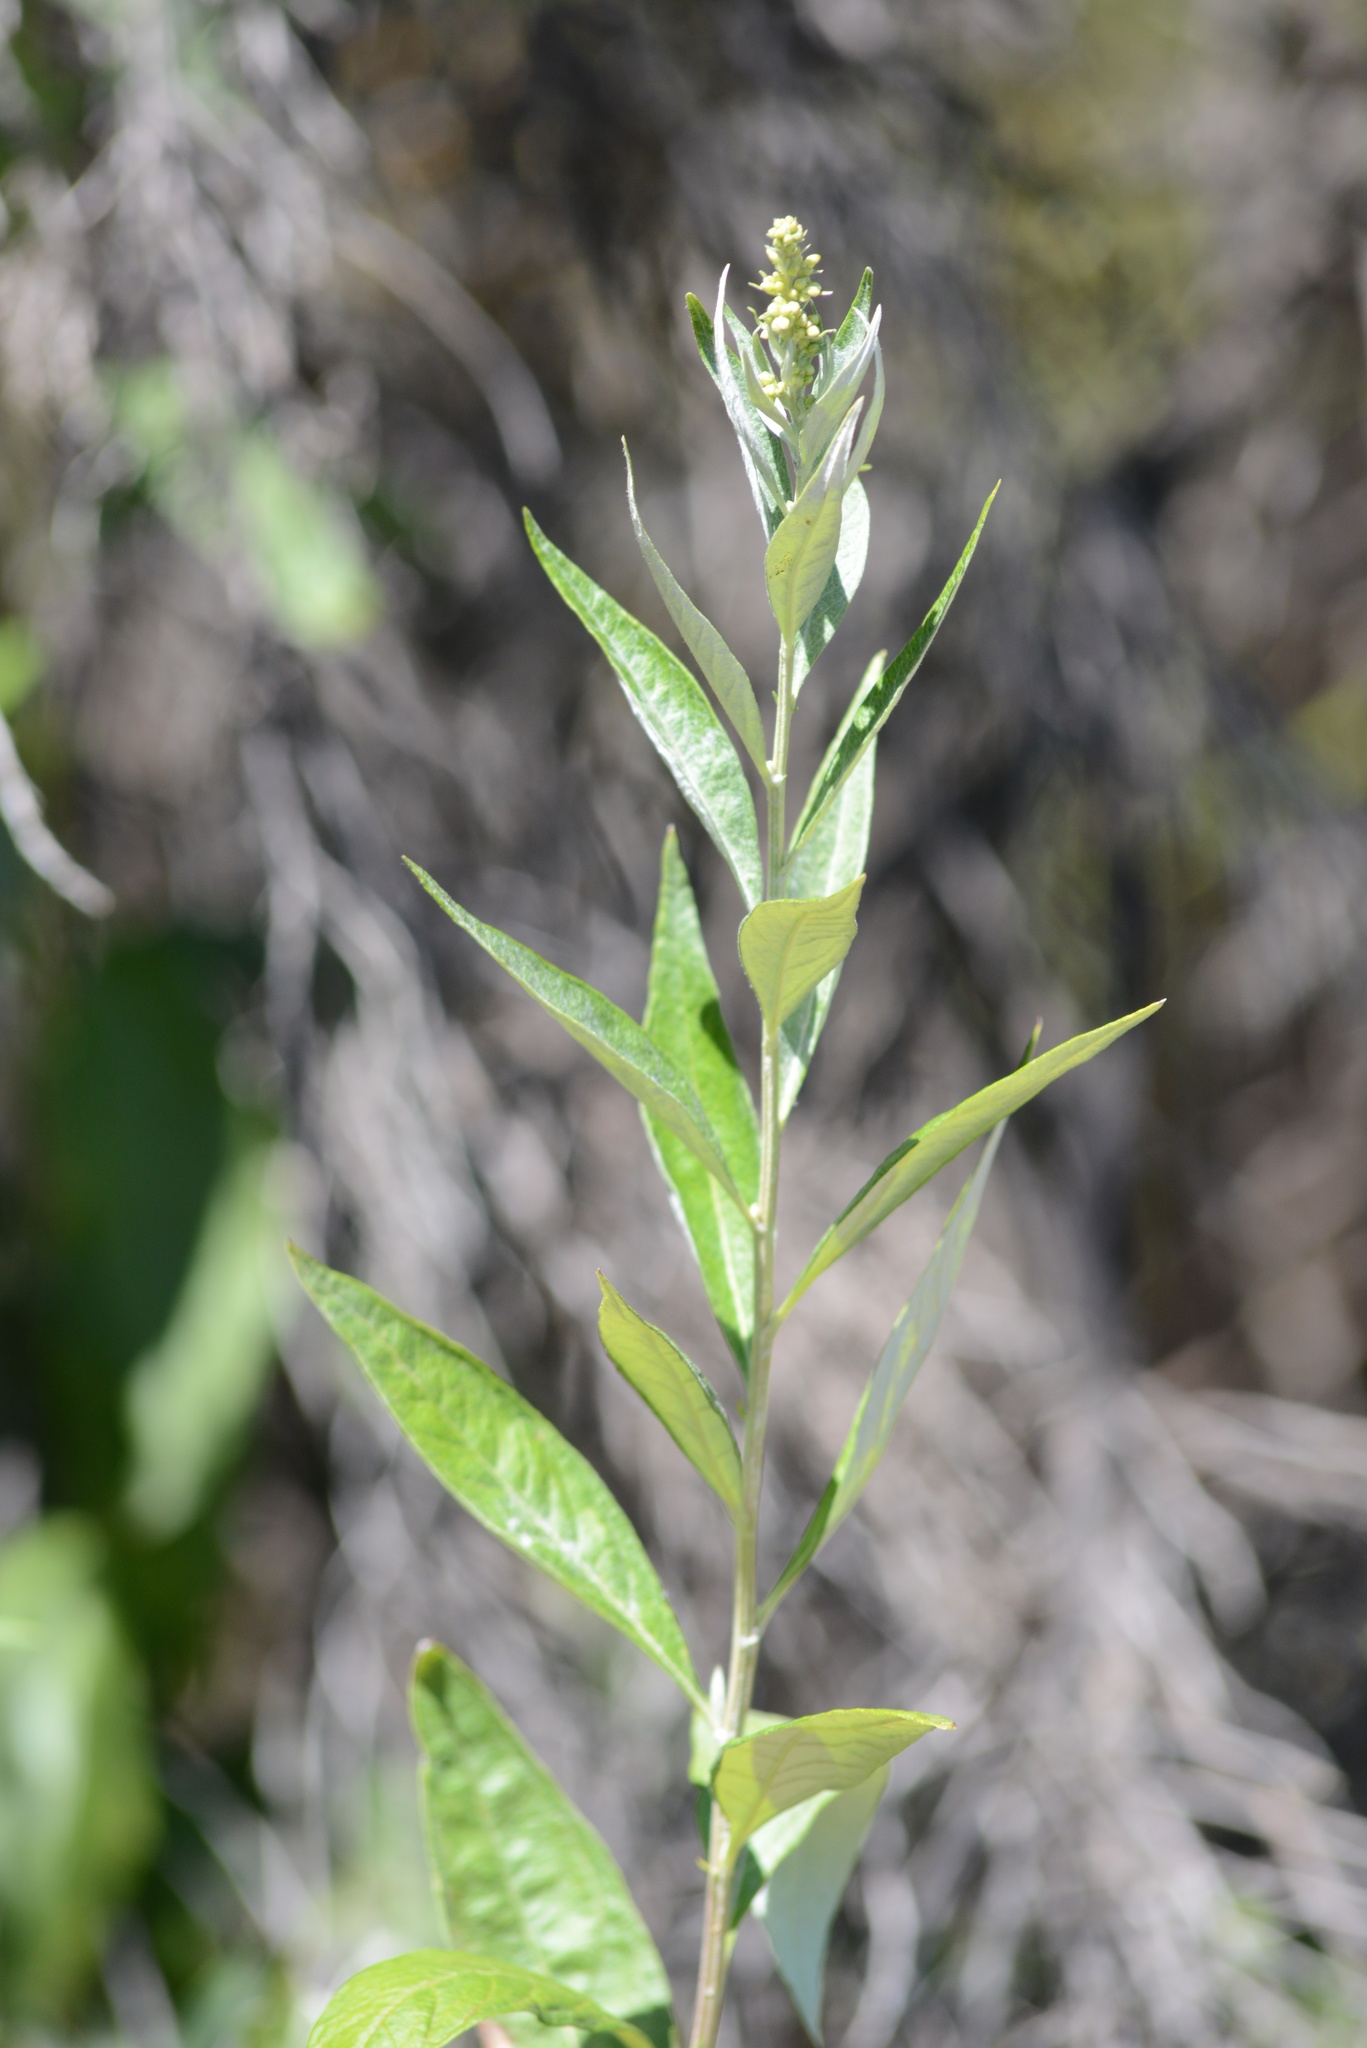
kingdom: Plantae
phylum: Tracheophyta
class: Magnoliopsida
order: Asterales
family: Asteraceae
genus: Artemisia
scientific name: Artemisia douglasiana
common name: Northwest mugwort
